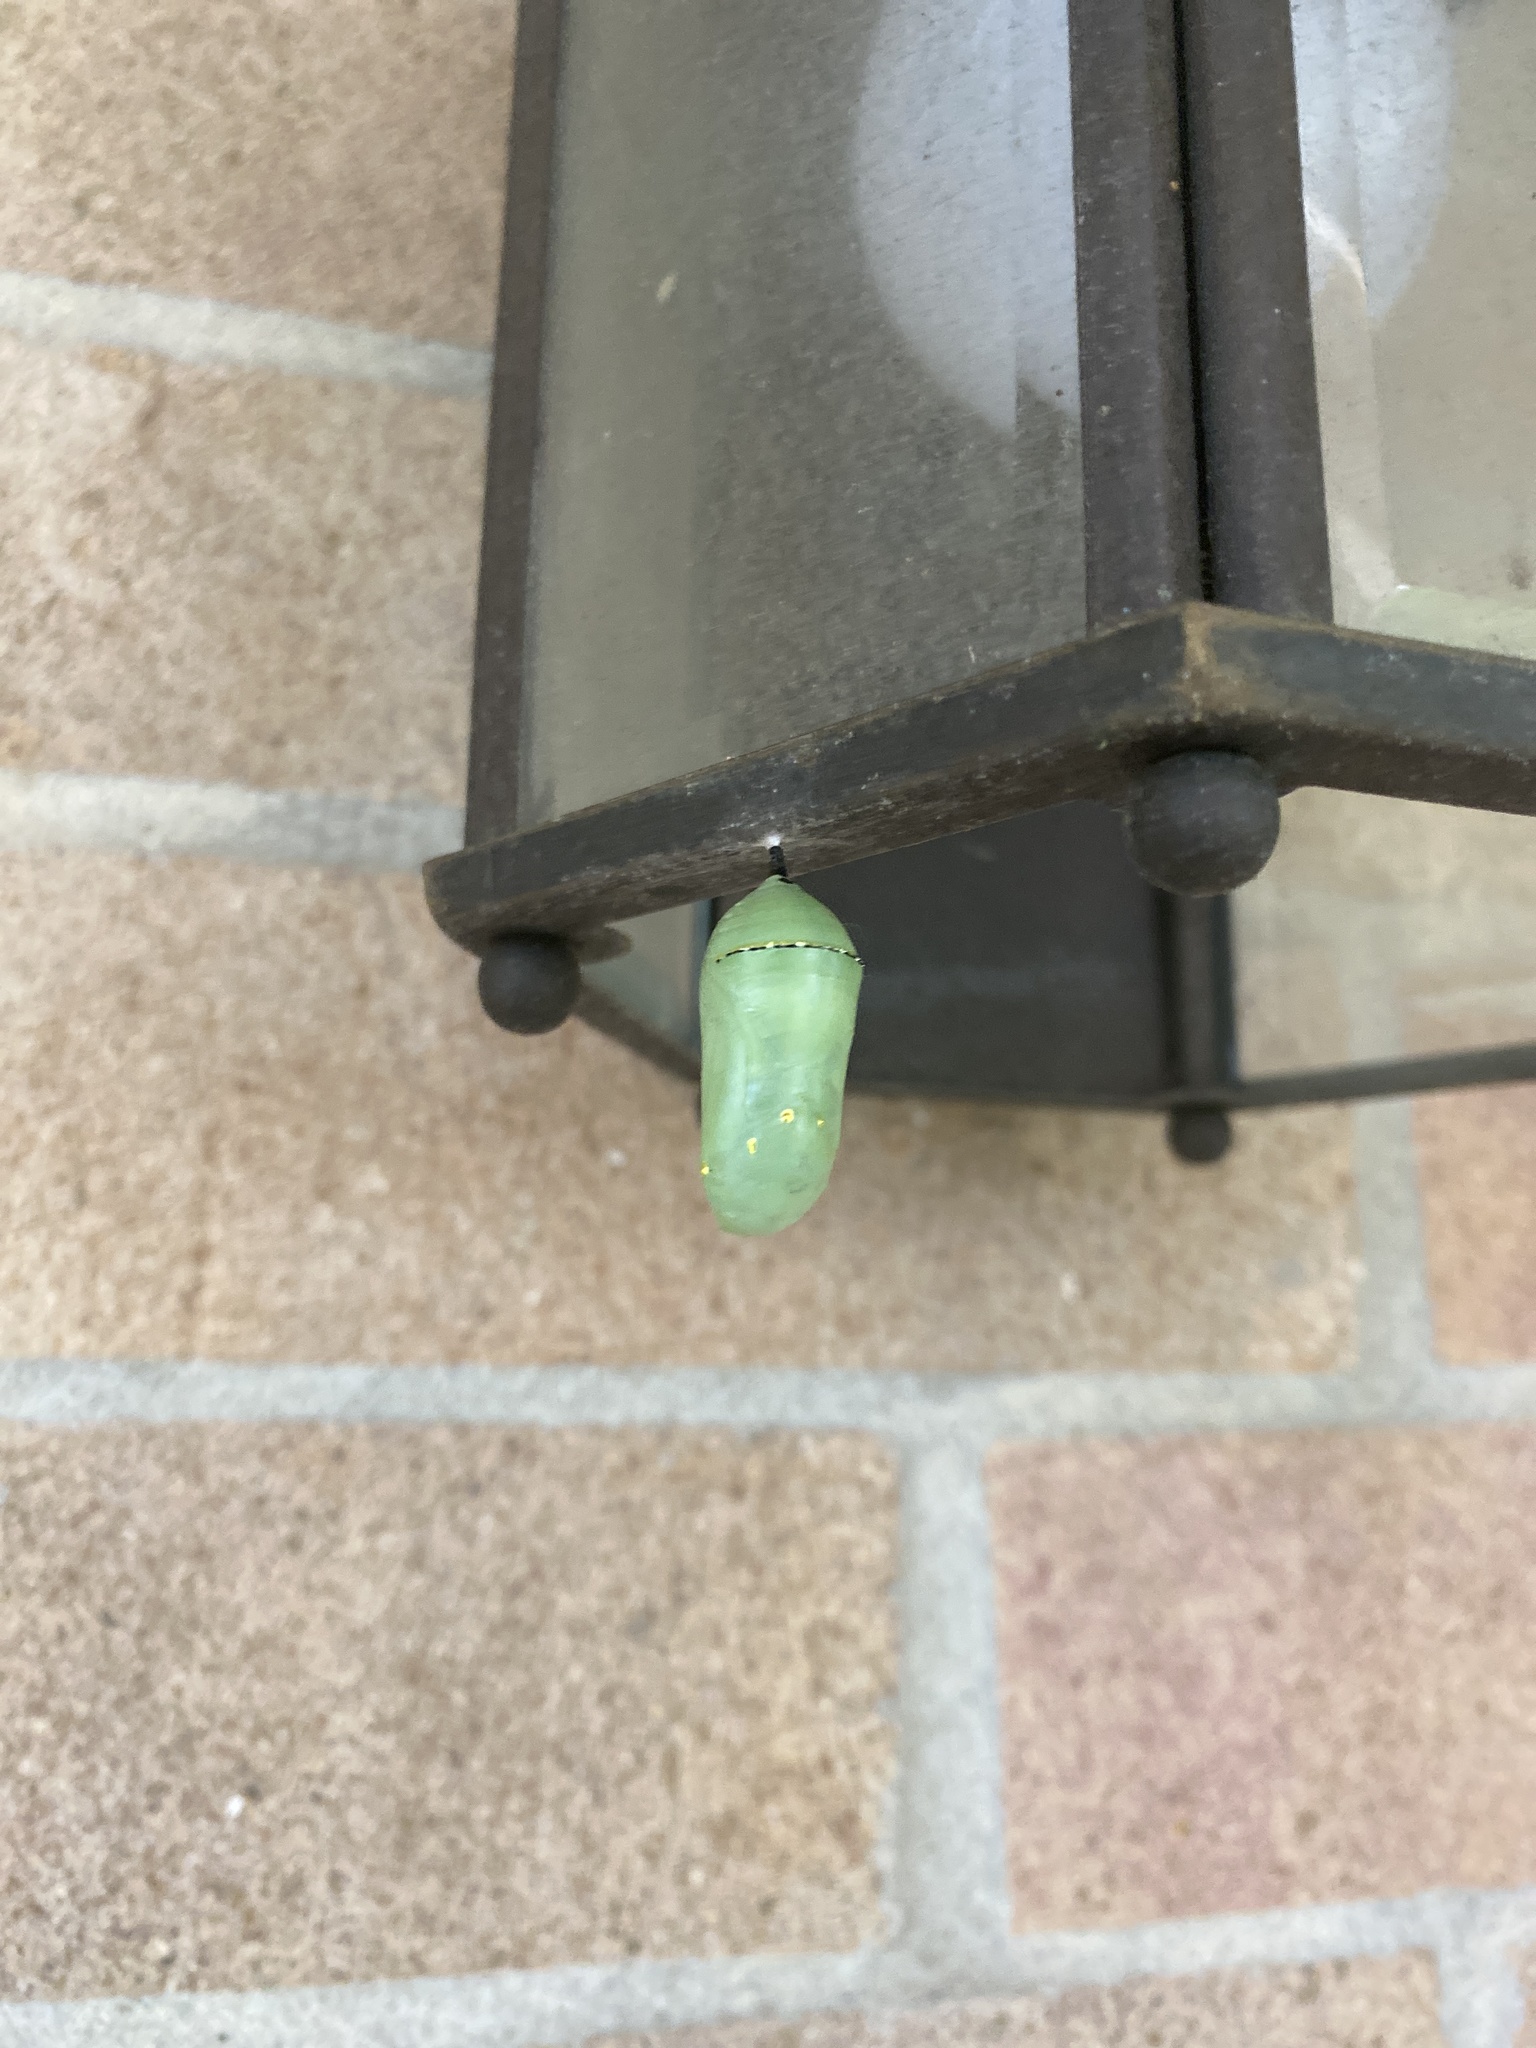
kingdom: Animalia
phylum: Arthropoda
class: Insecta
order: Lepidoptera
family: Nymphalidae
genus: Danaus
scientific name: Danaus plexippus
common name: Monarch
